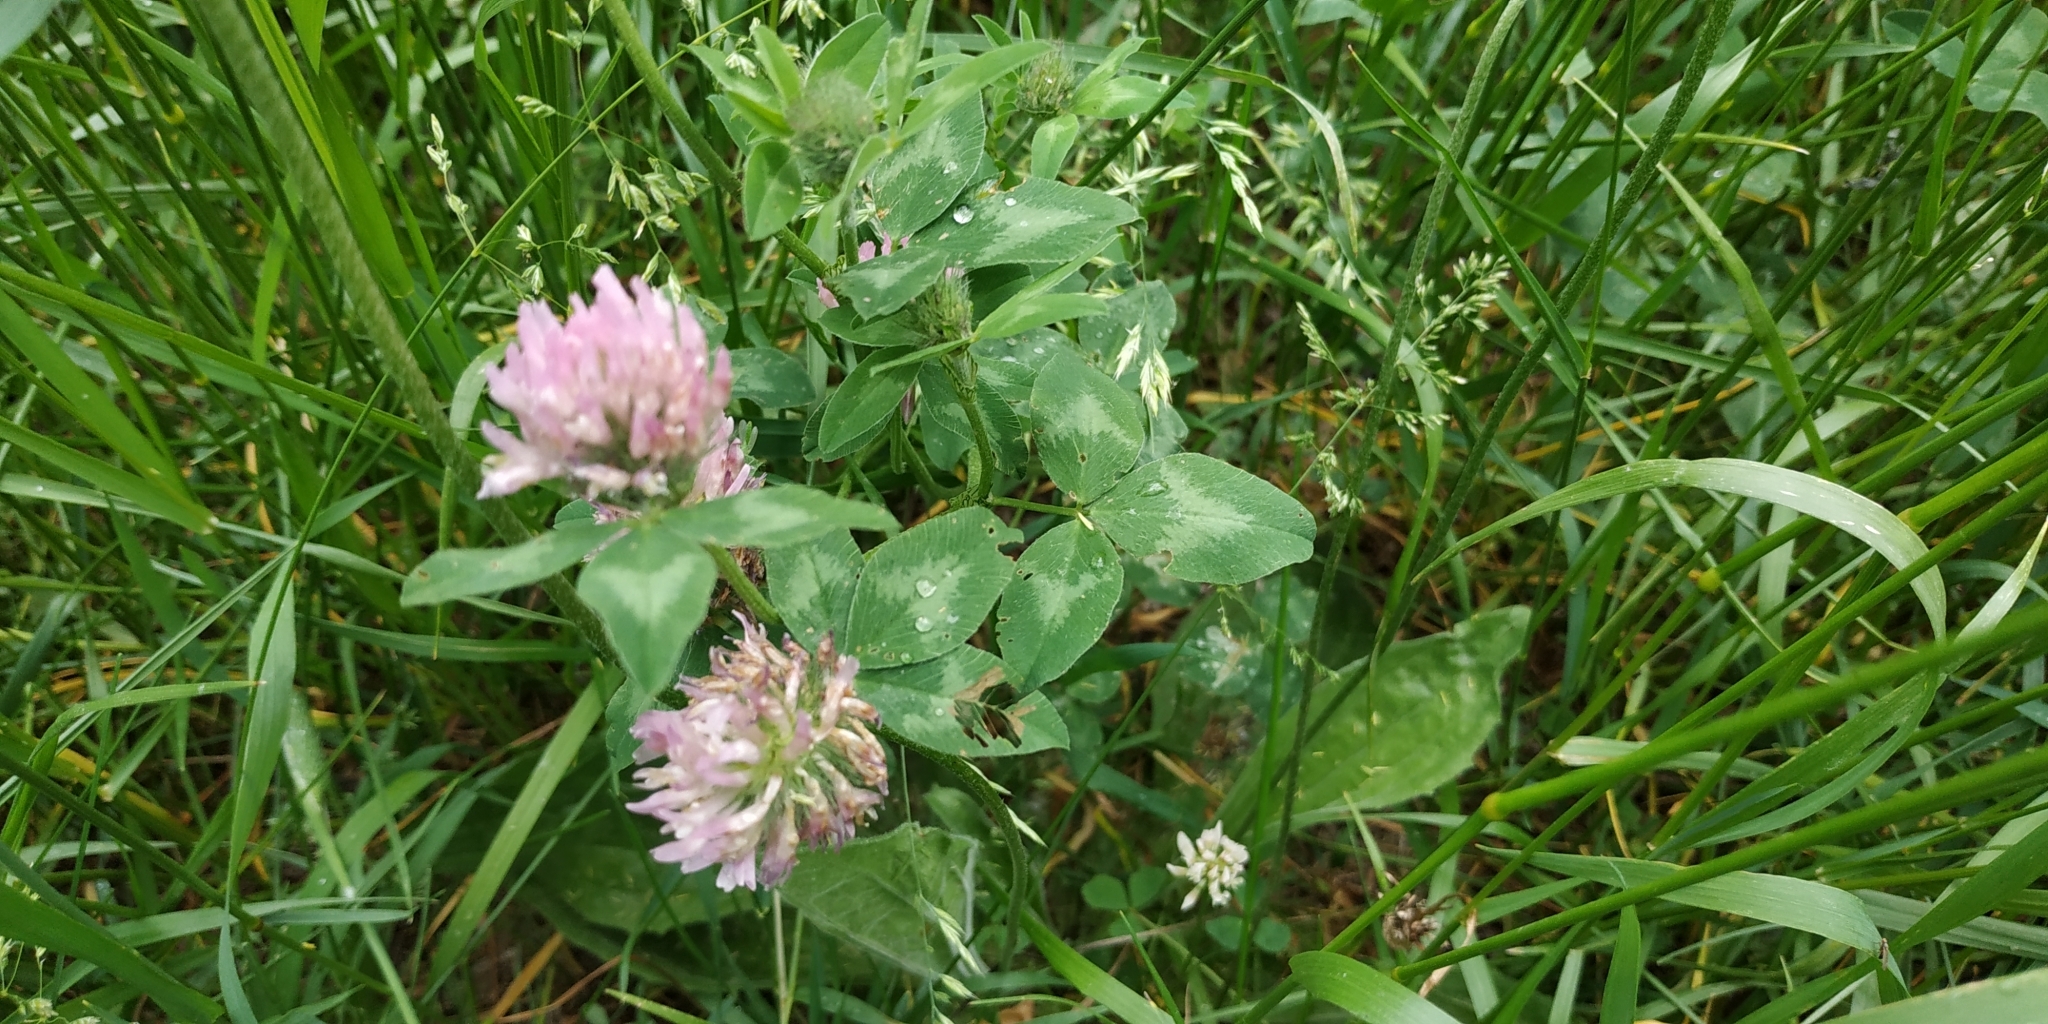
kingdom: Plantae
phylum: Tracheophyta
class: Magnoliopsida
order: Fabales
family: Fabaceae
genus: Trifolium
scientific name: Trifolium pratense
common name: Red clover
